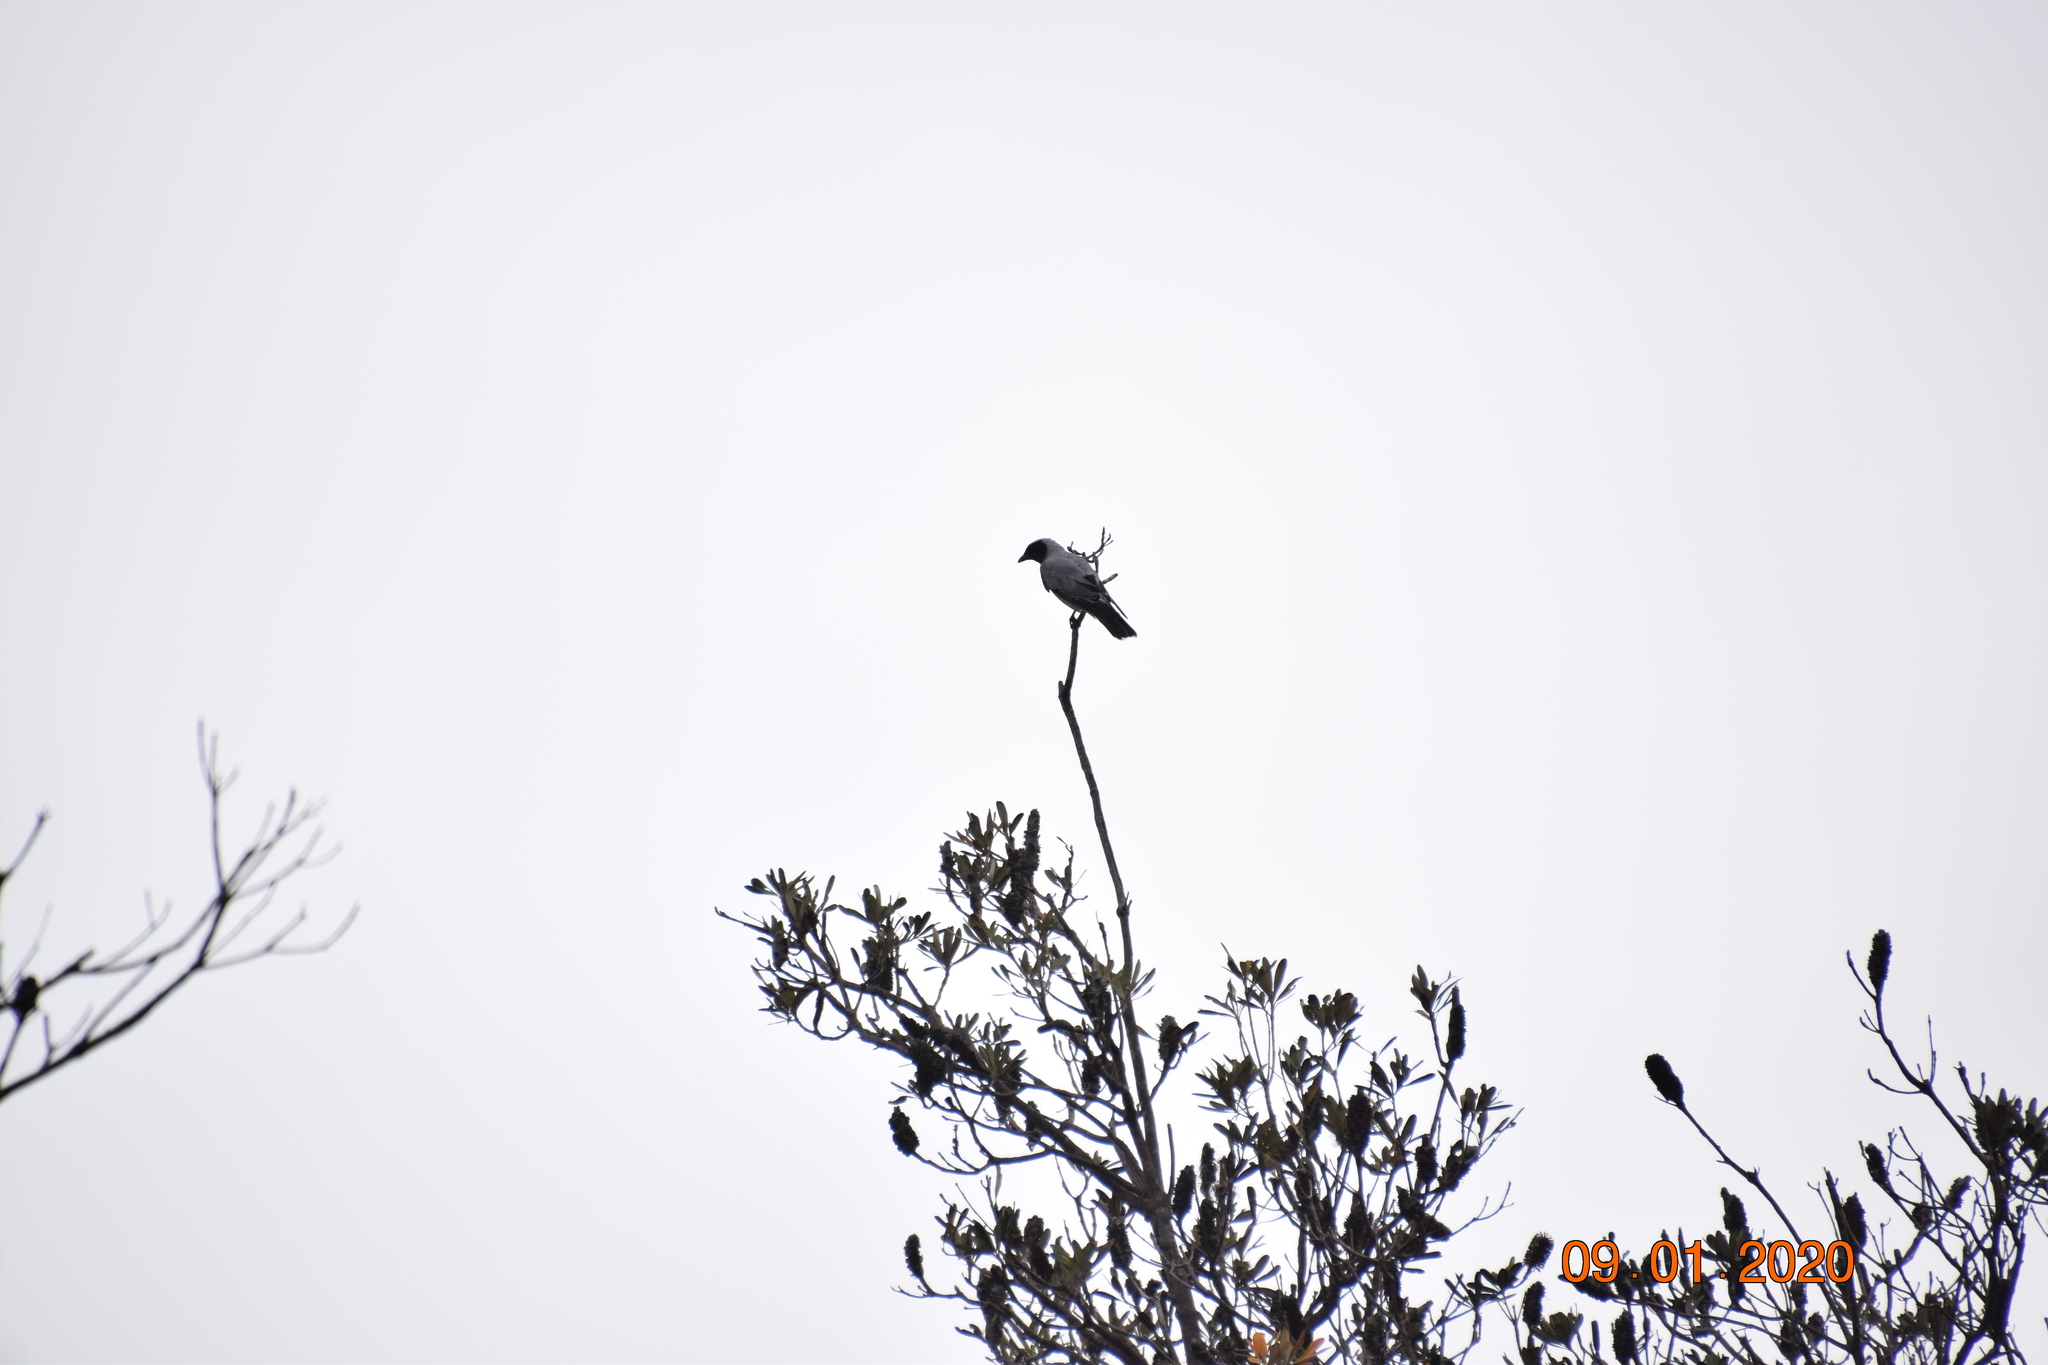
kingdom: Animalia
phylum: Chordata
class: Aves
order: Passeriformes
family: Campephagidae
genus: Coracina
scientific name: Coracina novaehollandiae
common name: Black-faced cuckooshrike
